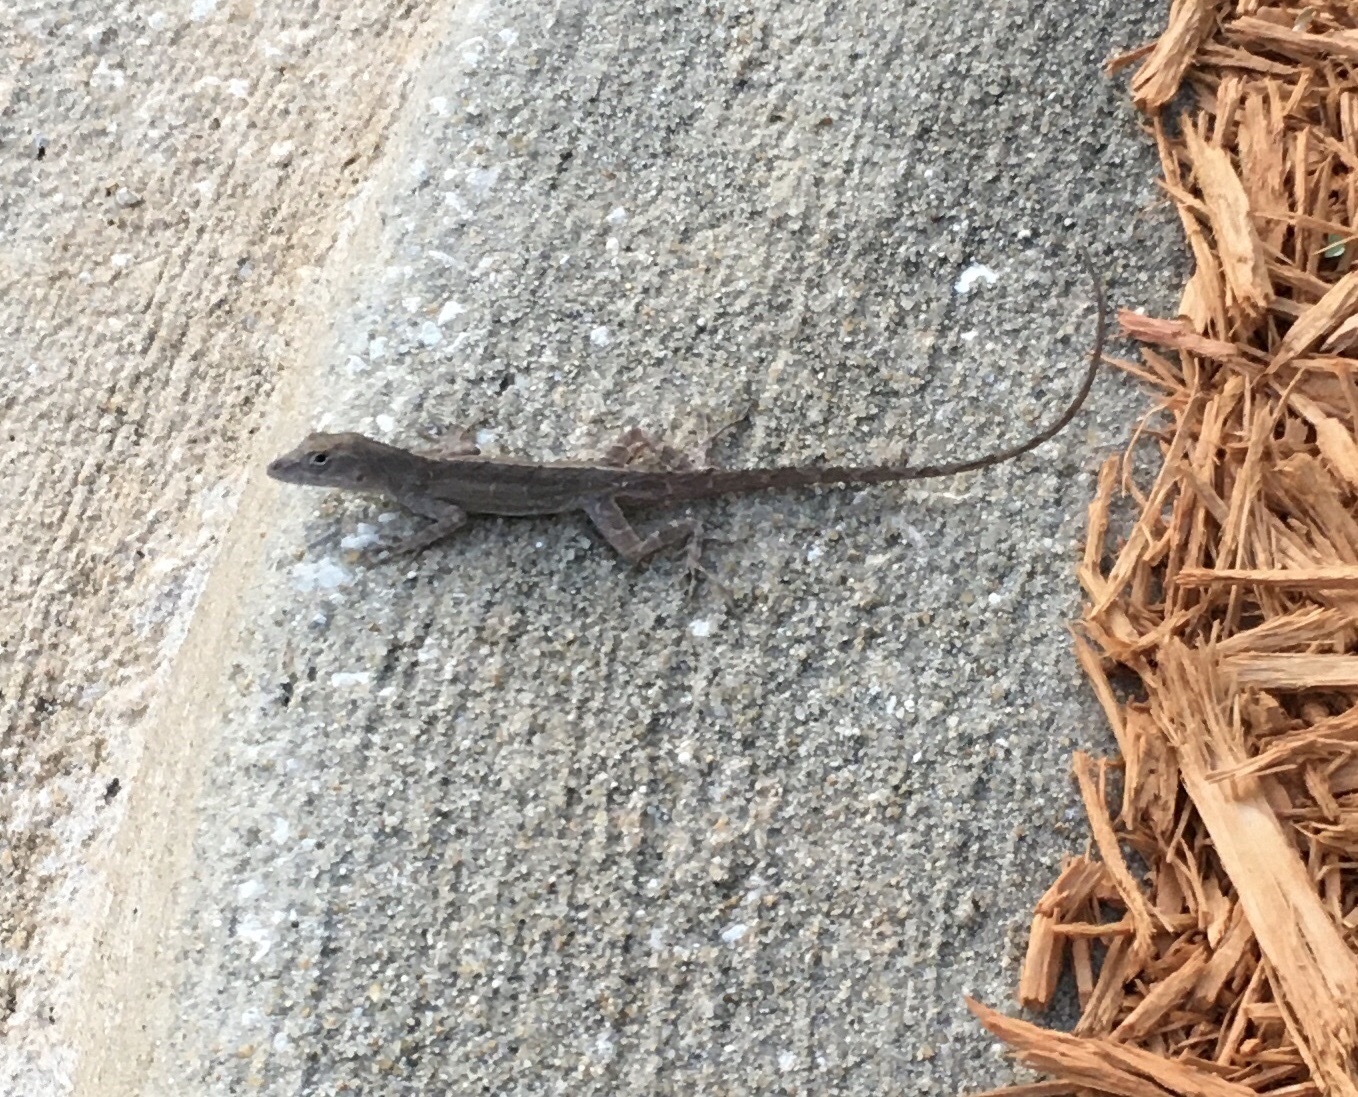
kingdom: Animalia
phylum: Chordata
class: Squamata
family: Dactyloidae
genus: Anolis
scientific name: Anolis sagrei
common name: Brown anole
